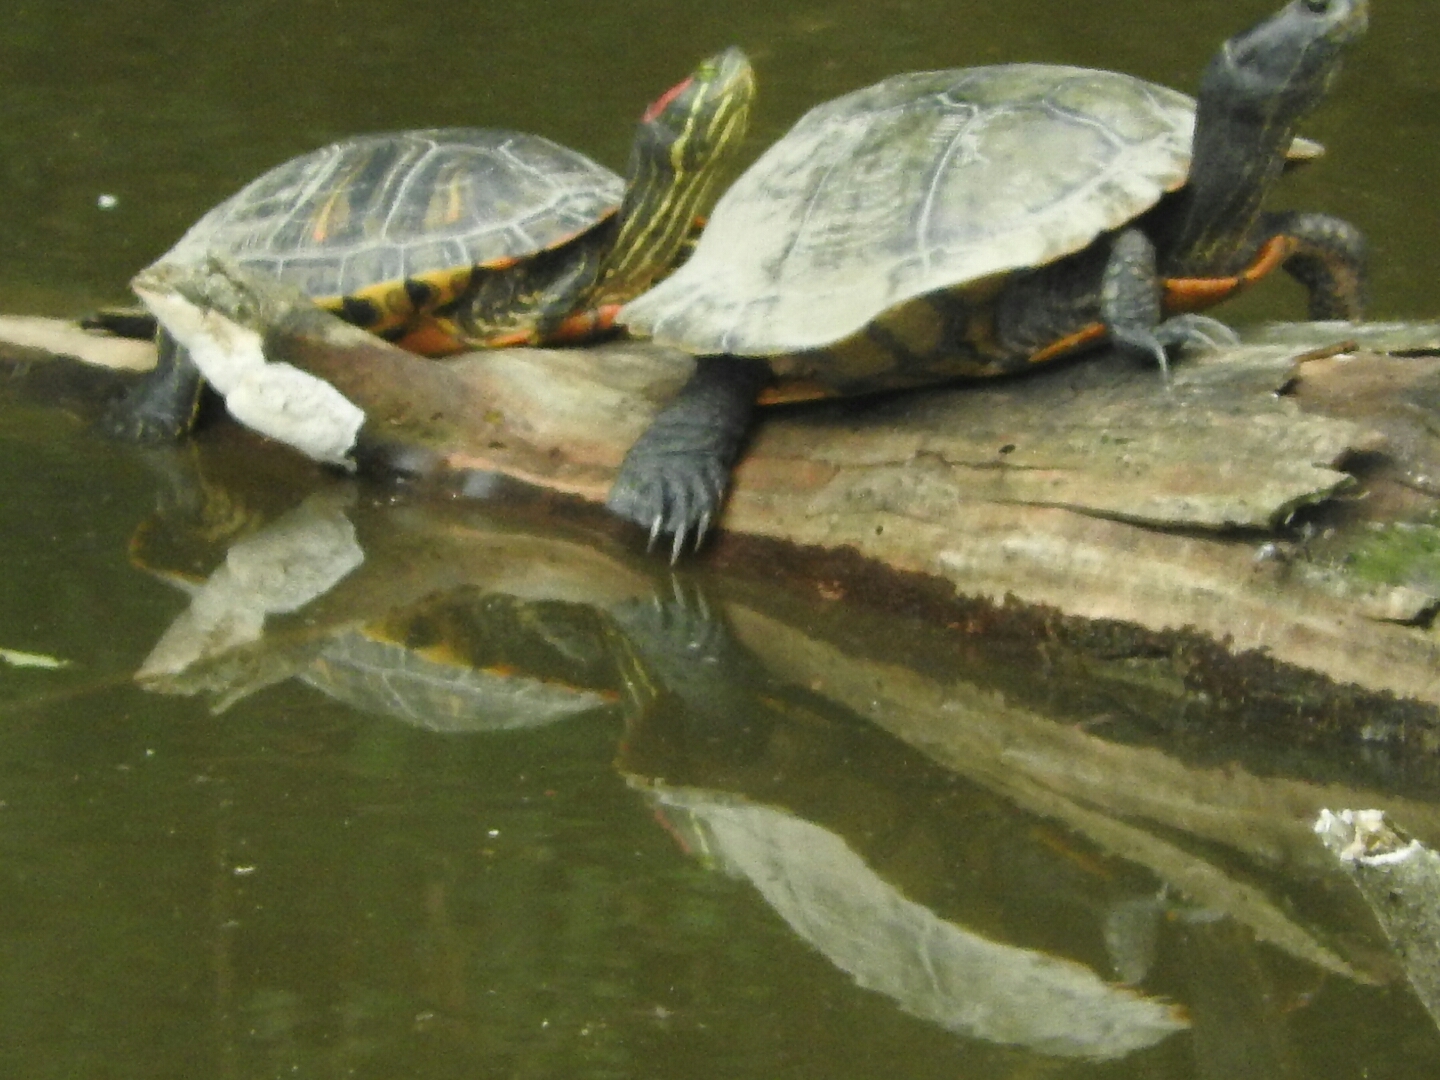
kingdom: Animalia
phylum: Chordata
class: Testudines
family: Emydidae
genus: Trachemys
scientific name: Trachemys scripta
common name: Slider
